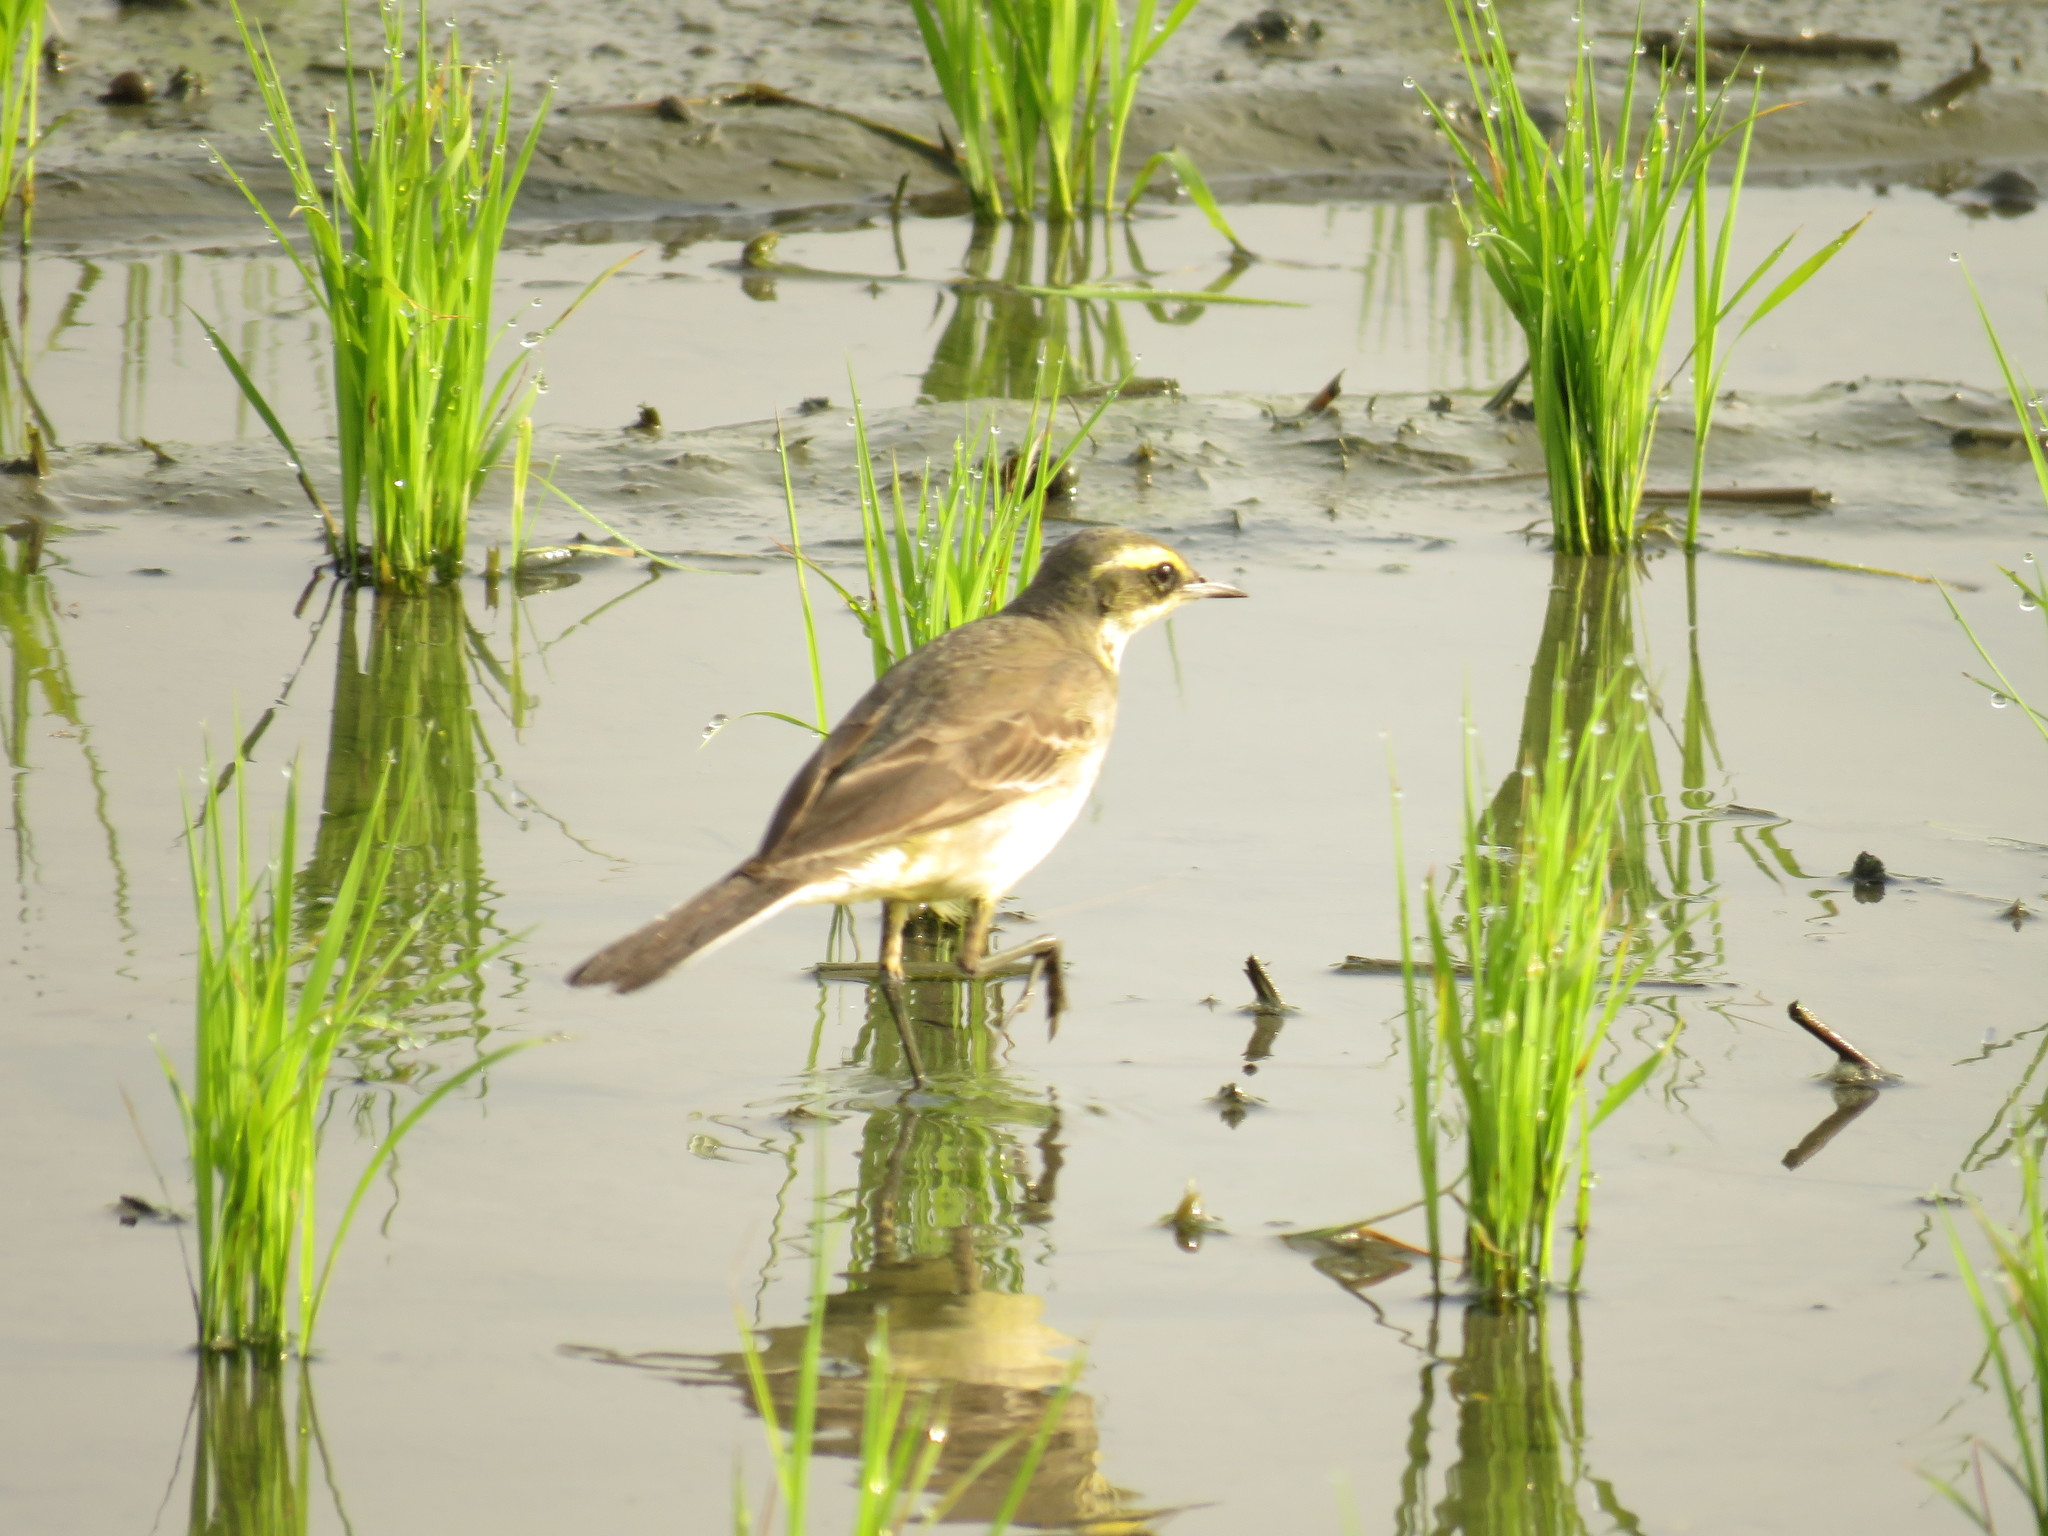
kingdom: Animalia
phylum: Chordata
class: Aves
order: Passeriformes
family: Motacillidae
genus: Motacilla
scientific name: Motacilla tschutschensis
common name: Eastern yellow wagtail
